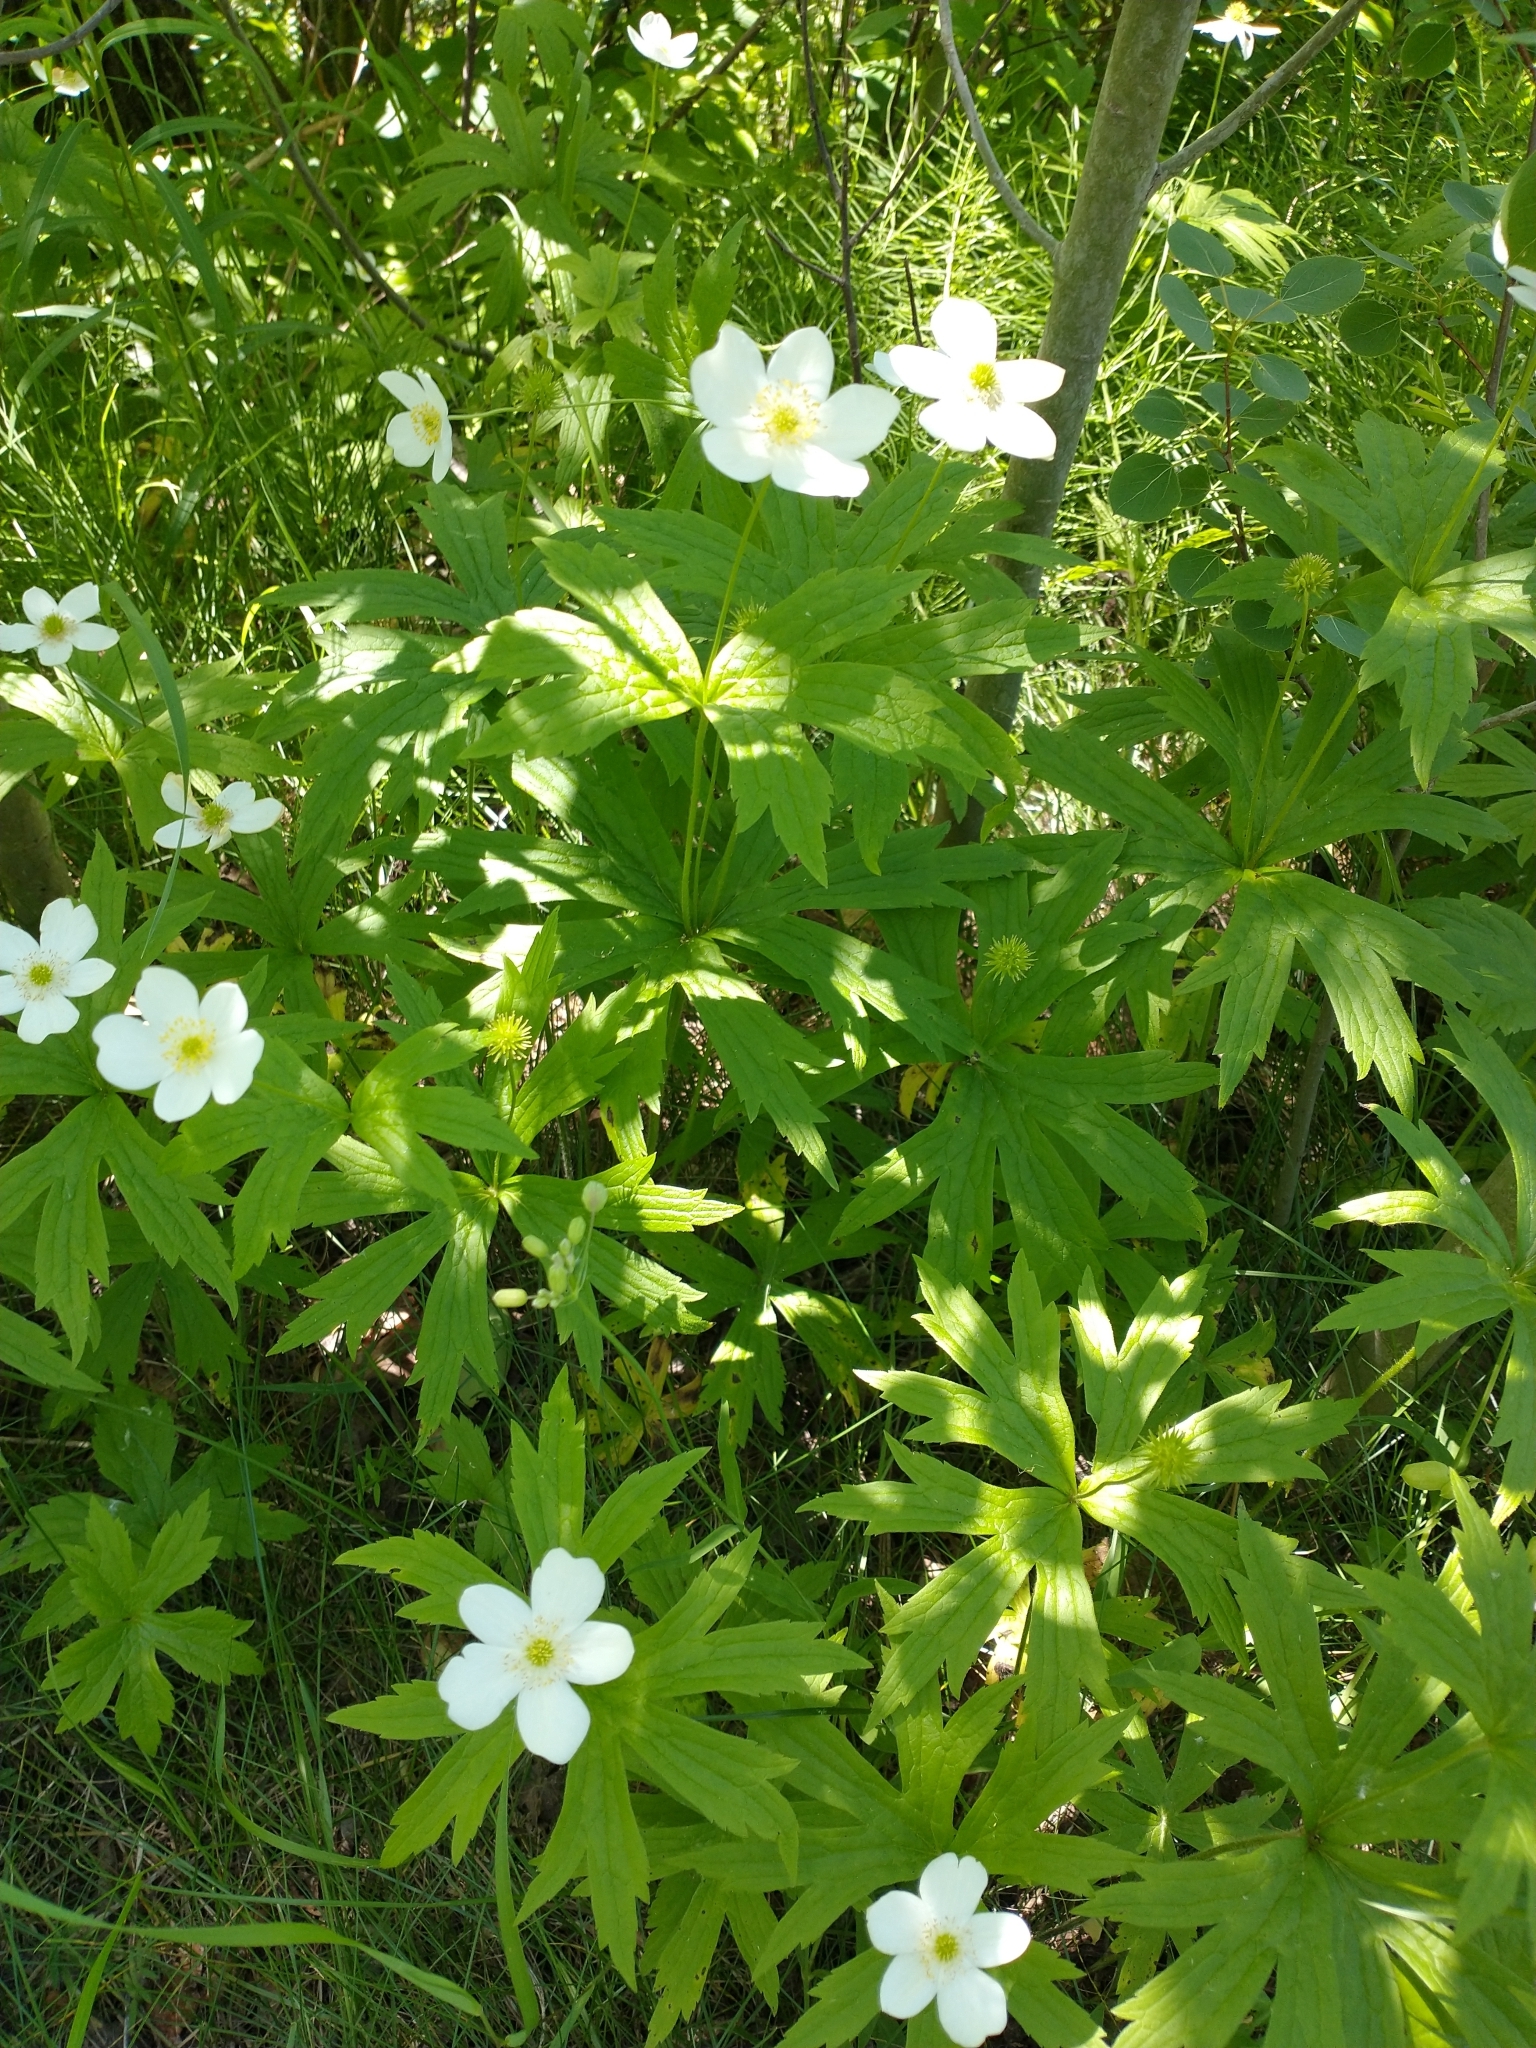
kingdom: Plantae
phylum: Tracheophyta
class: Magnoliopsida
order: Ranunculales
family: Ranunculaceae
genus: Anemonastrum
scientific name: Anemonastrum canadense
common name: Canada anemone
